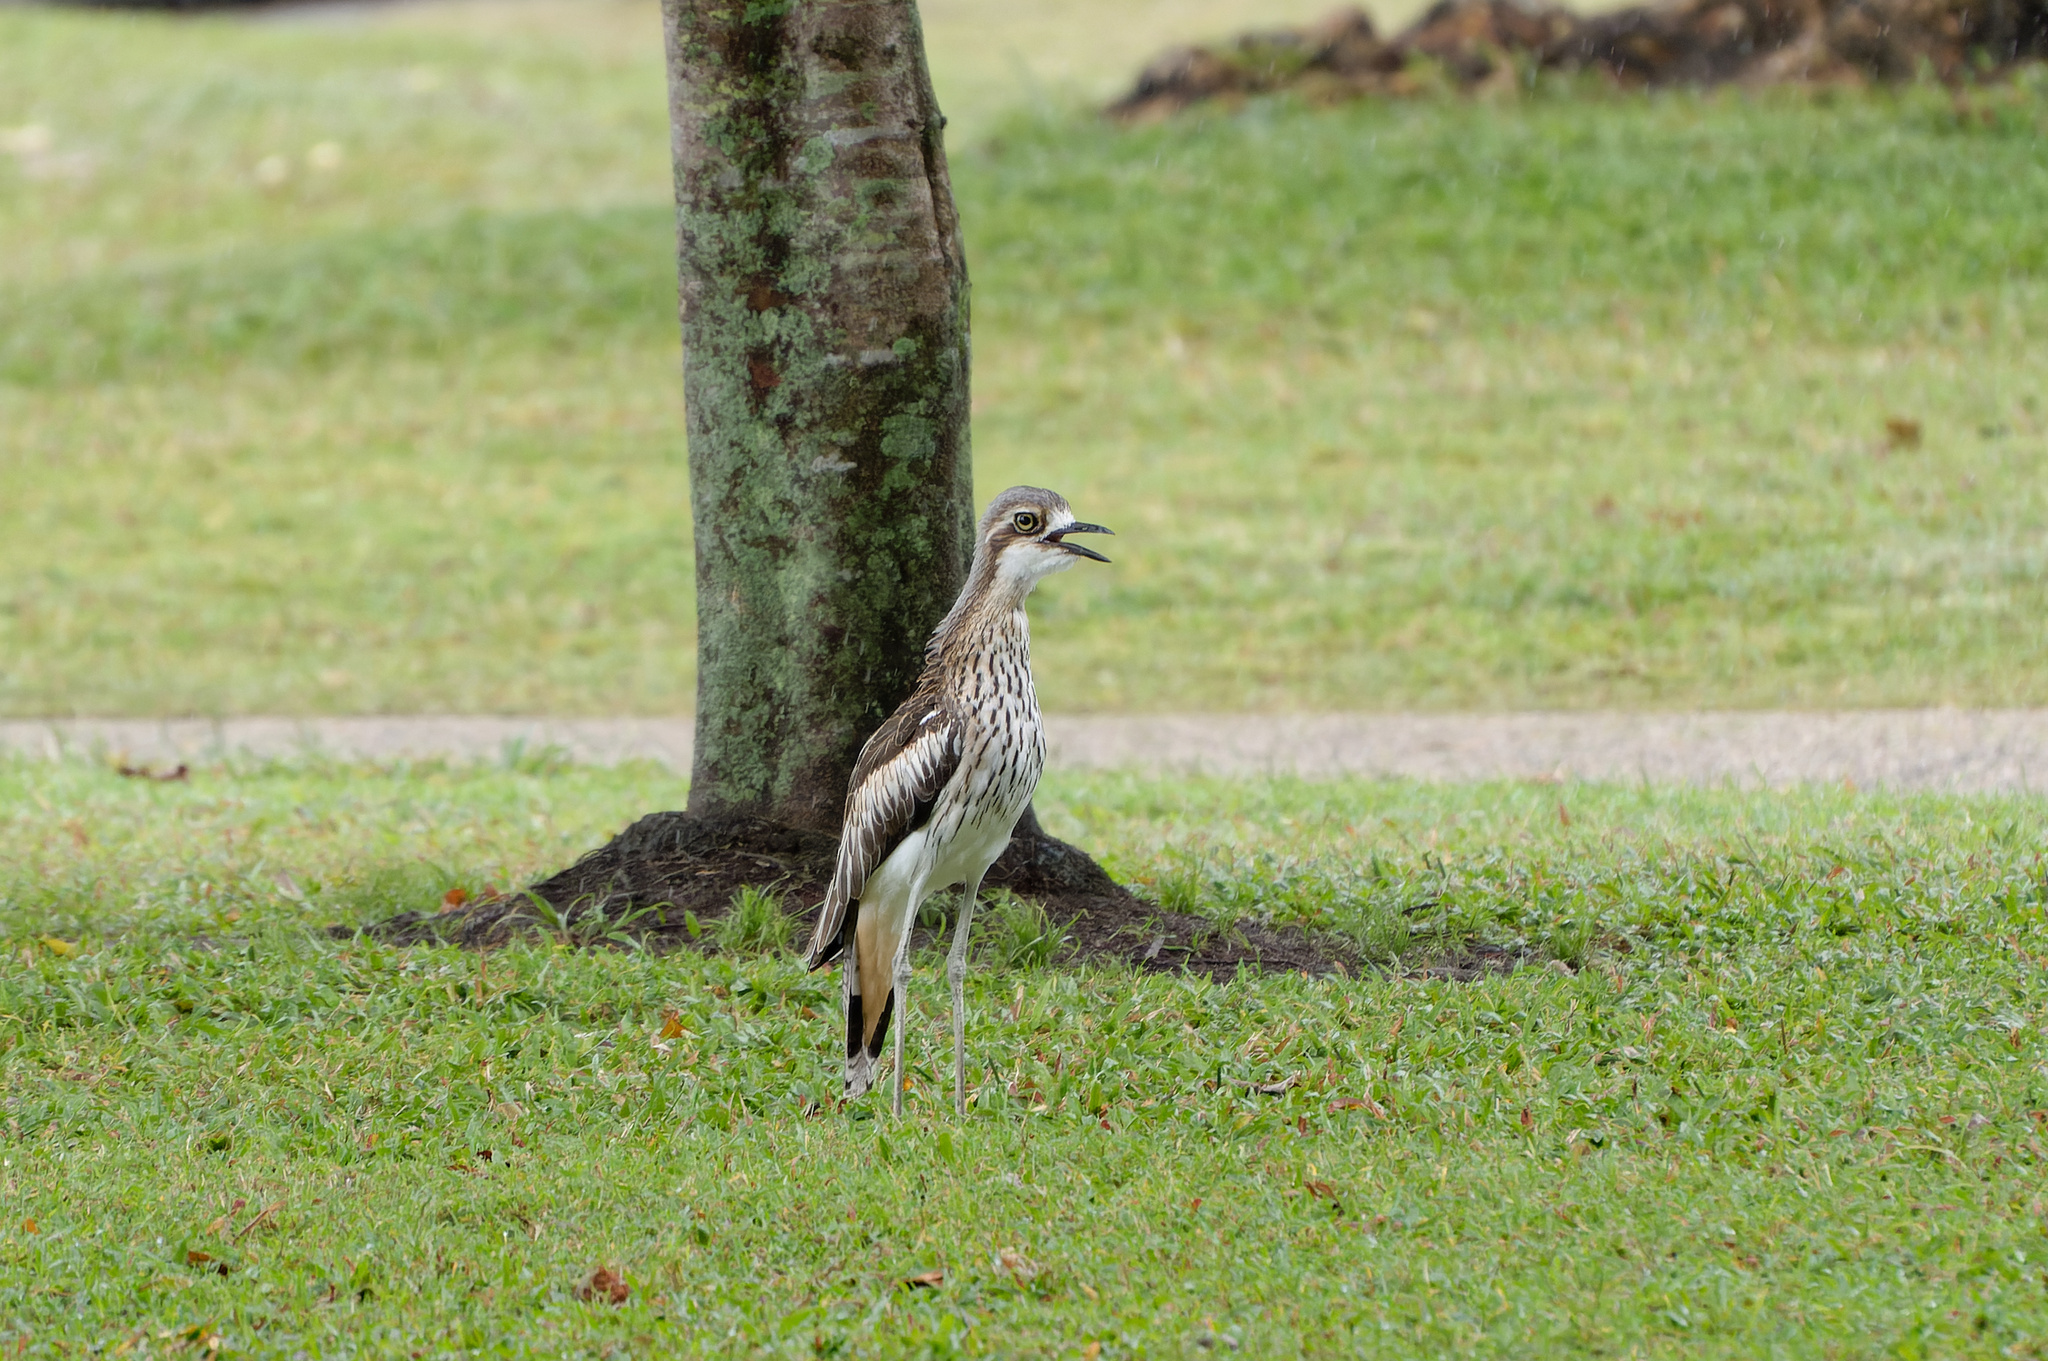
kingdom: Animalia
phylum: Chordata
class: Aves
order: Charadriiformes
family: Burhinidae
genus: Burhinus
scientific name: Burhinus grallarius
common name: Bush stone-curlew
